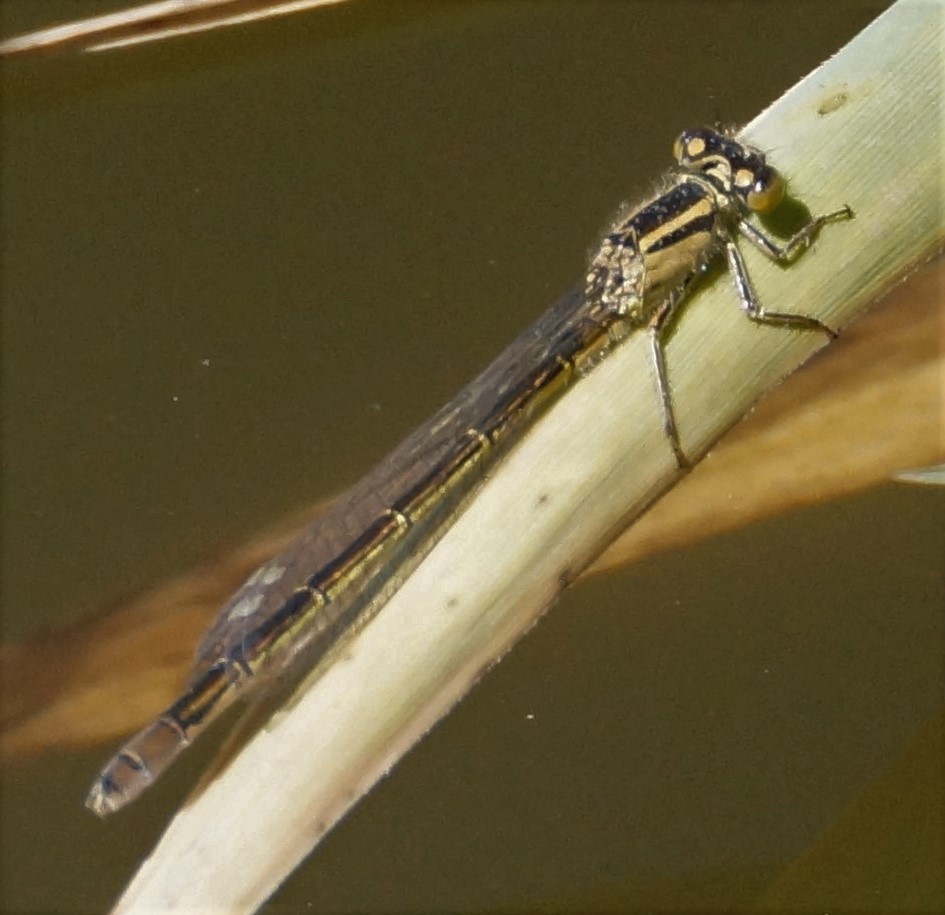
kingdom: Animalia
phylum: Arthropoda
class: Insecta
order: Odonata
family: Coenagrionidae
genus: Ischnura
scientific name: Ischnura heterosticta
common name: Common bluetail
